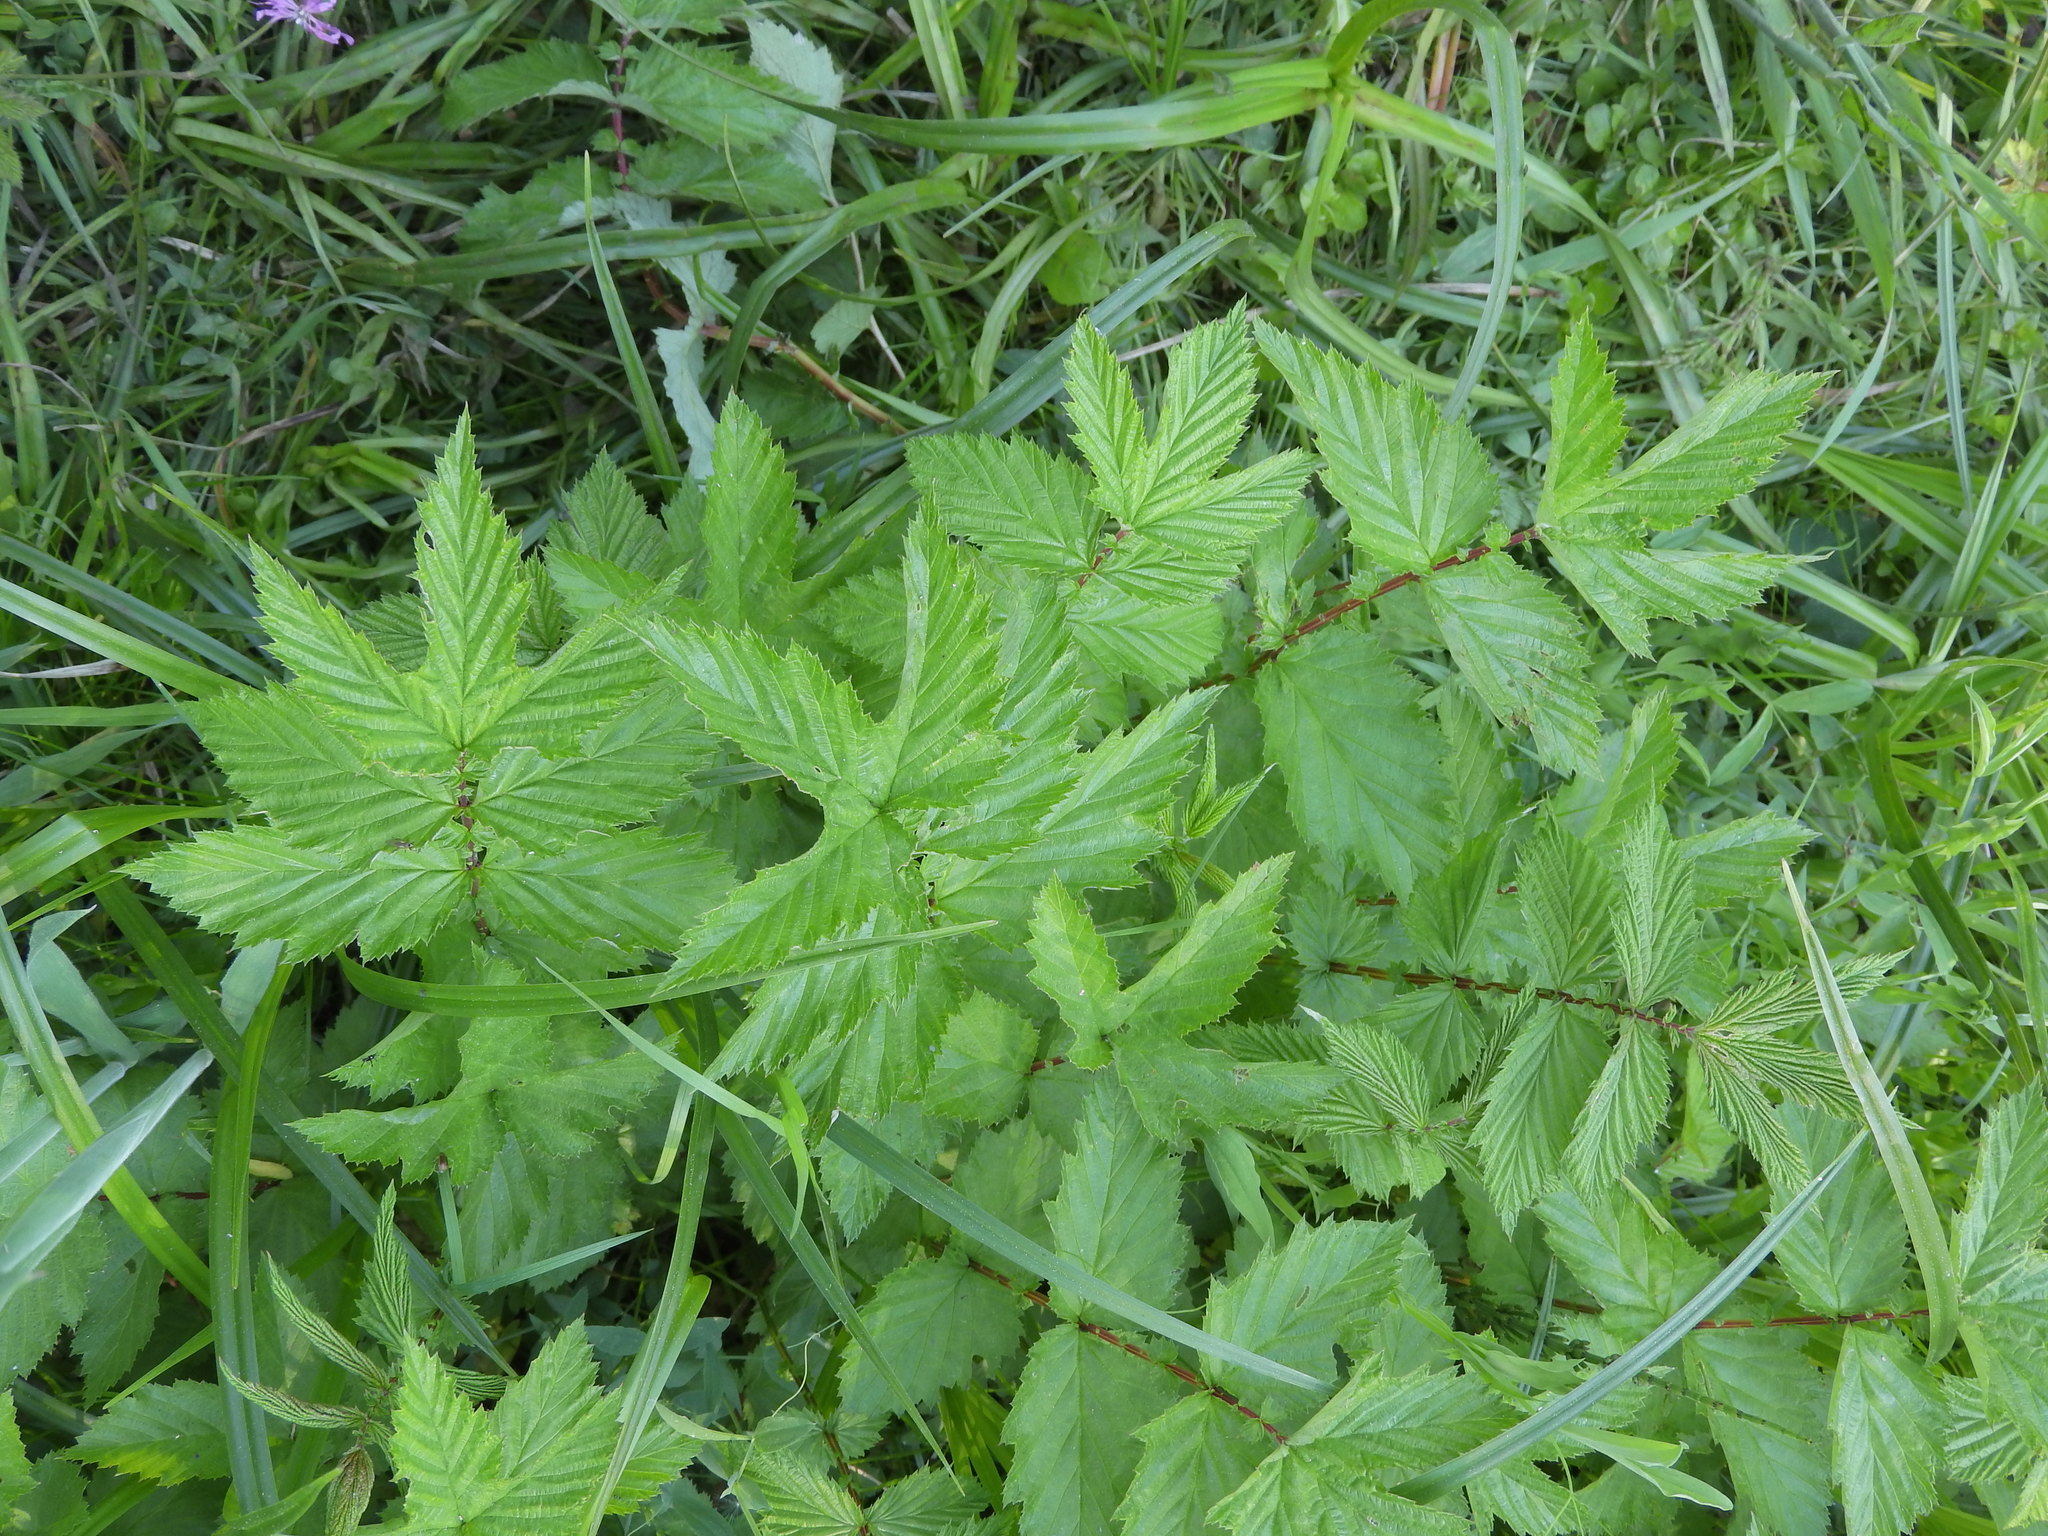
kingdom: Plantae
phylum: Tracheophyta
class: Magnoliopsida
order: Rosales
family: Rosaceae
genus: Filipendula
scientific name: Filipendula ulmaria
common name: Meadowsweet
